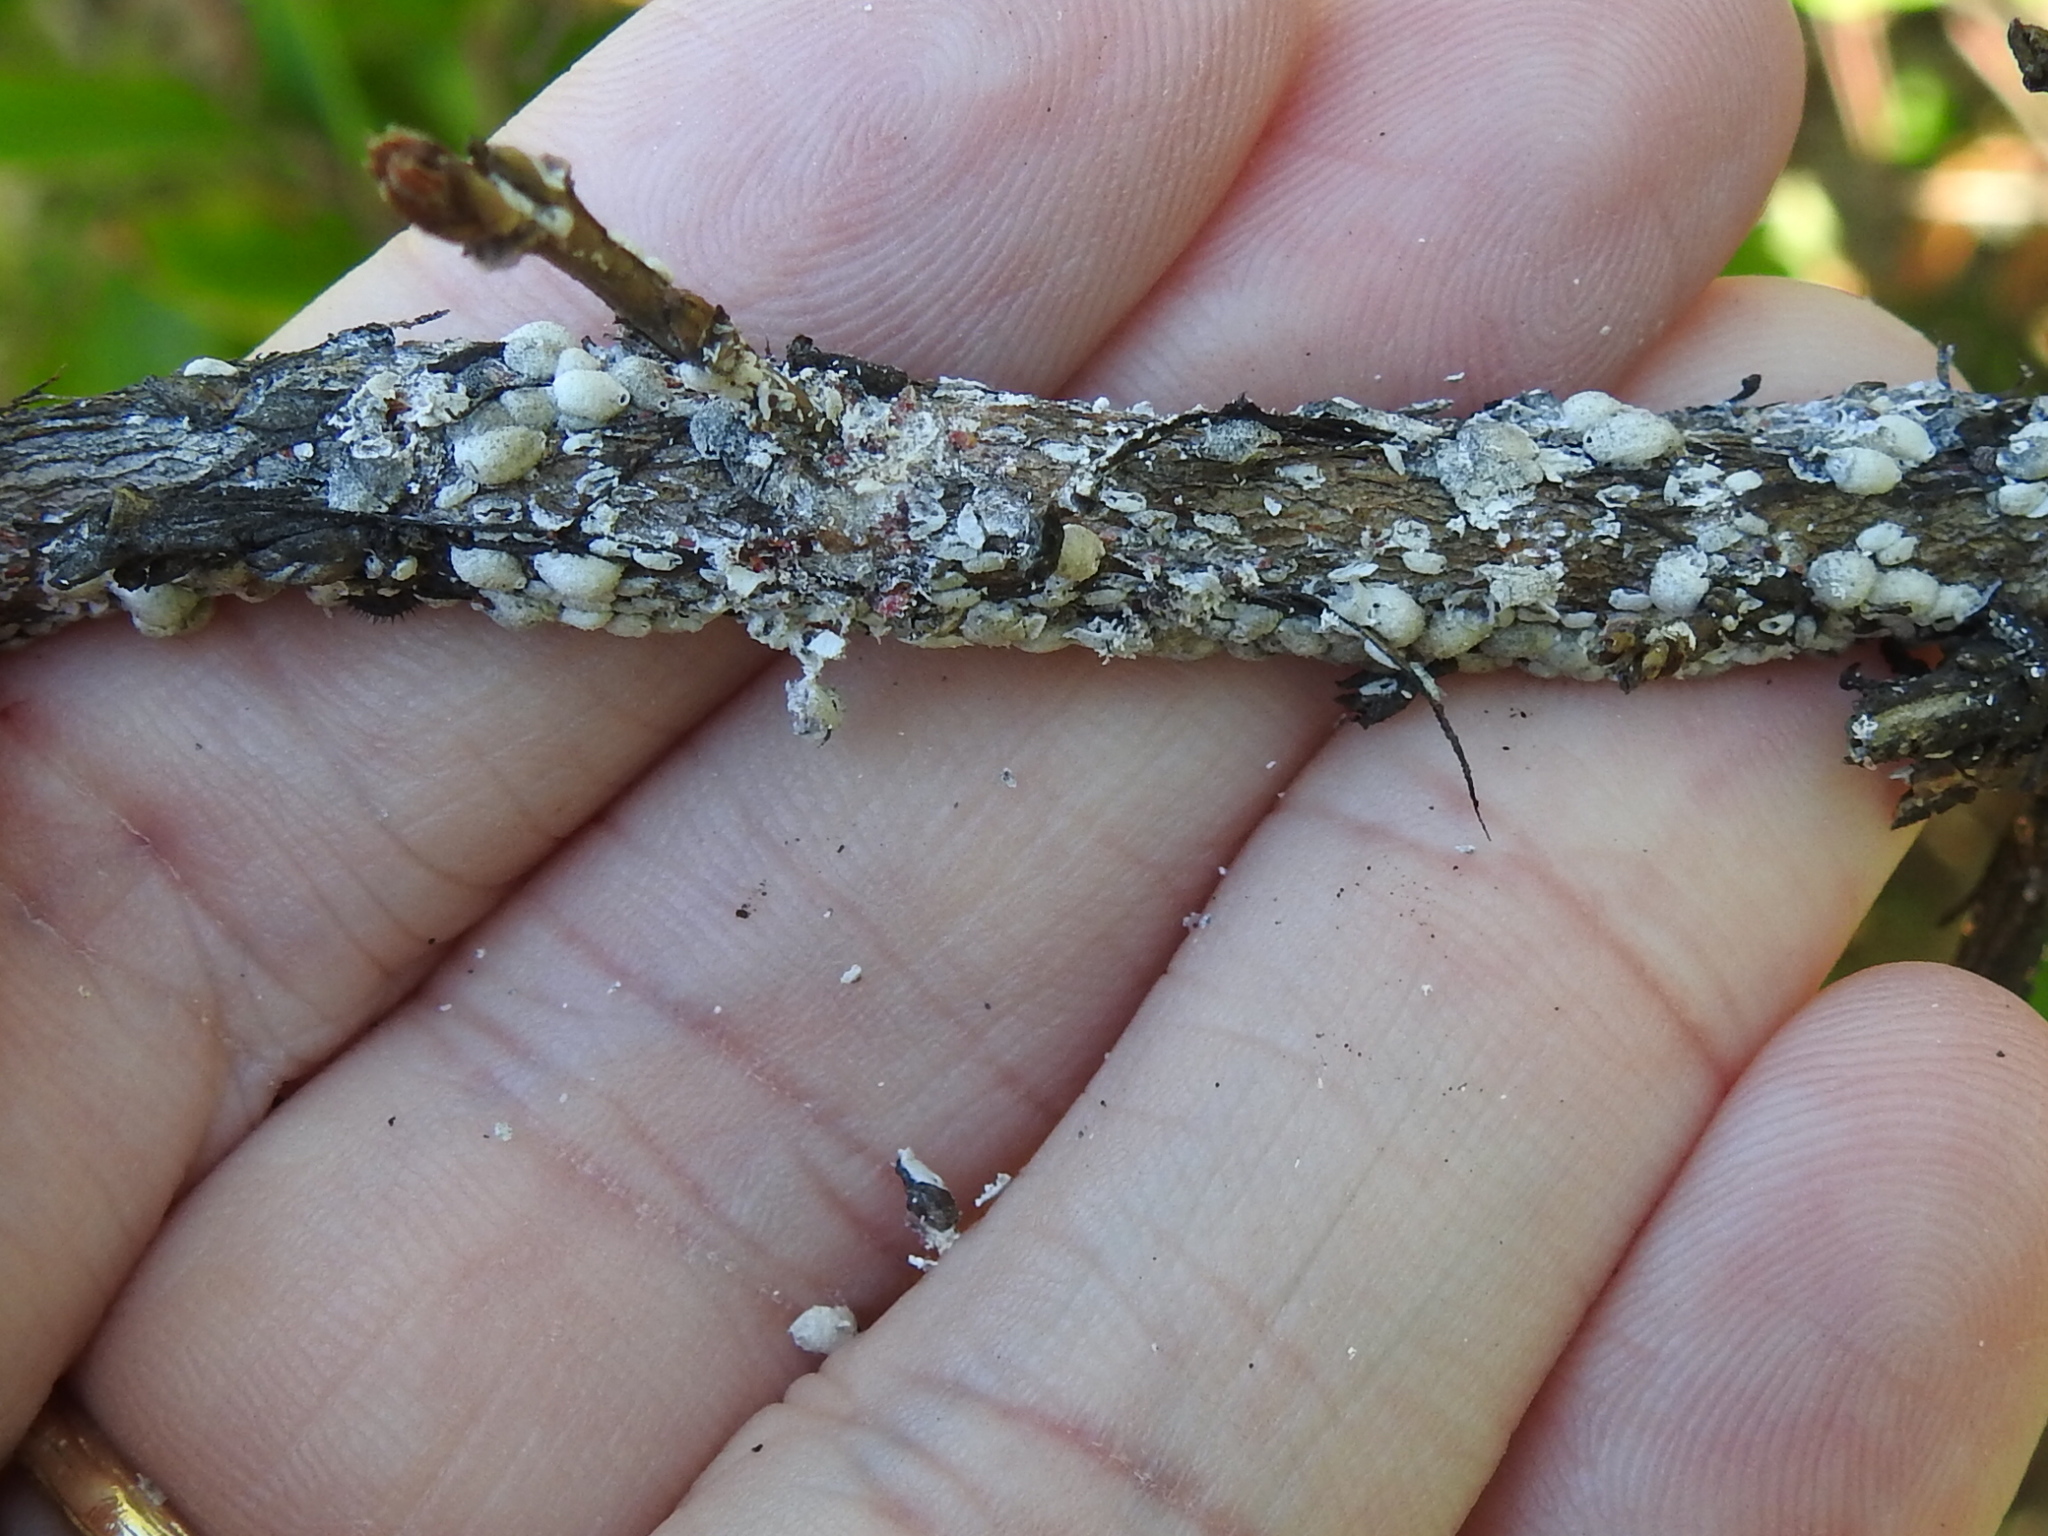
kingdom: Animalia
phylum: Arthropoda
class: Insecta
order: Hemiptera
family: Eriococcidae
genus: Eriococcus
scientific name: Eriococcus lagerstroemiae
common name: Crapemyrtle bark scale
